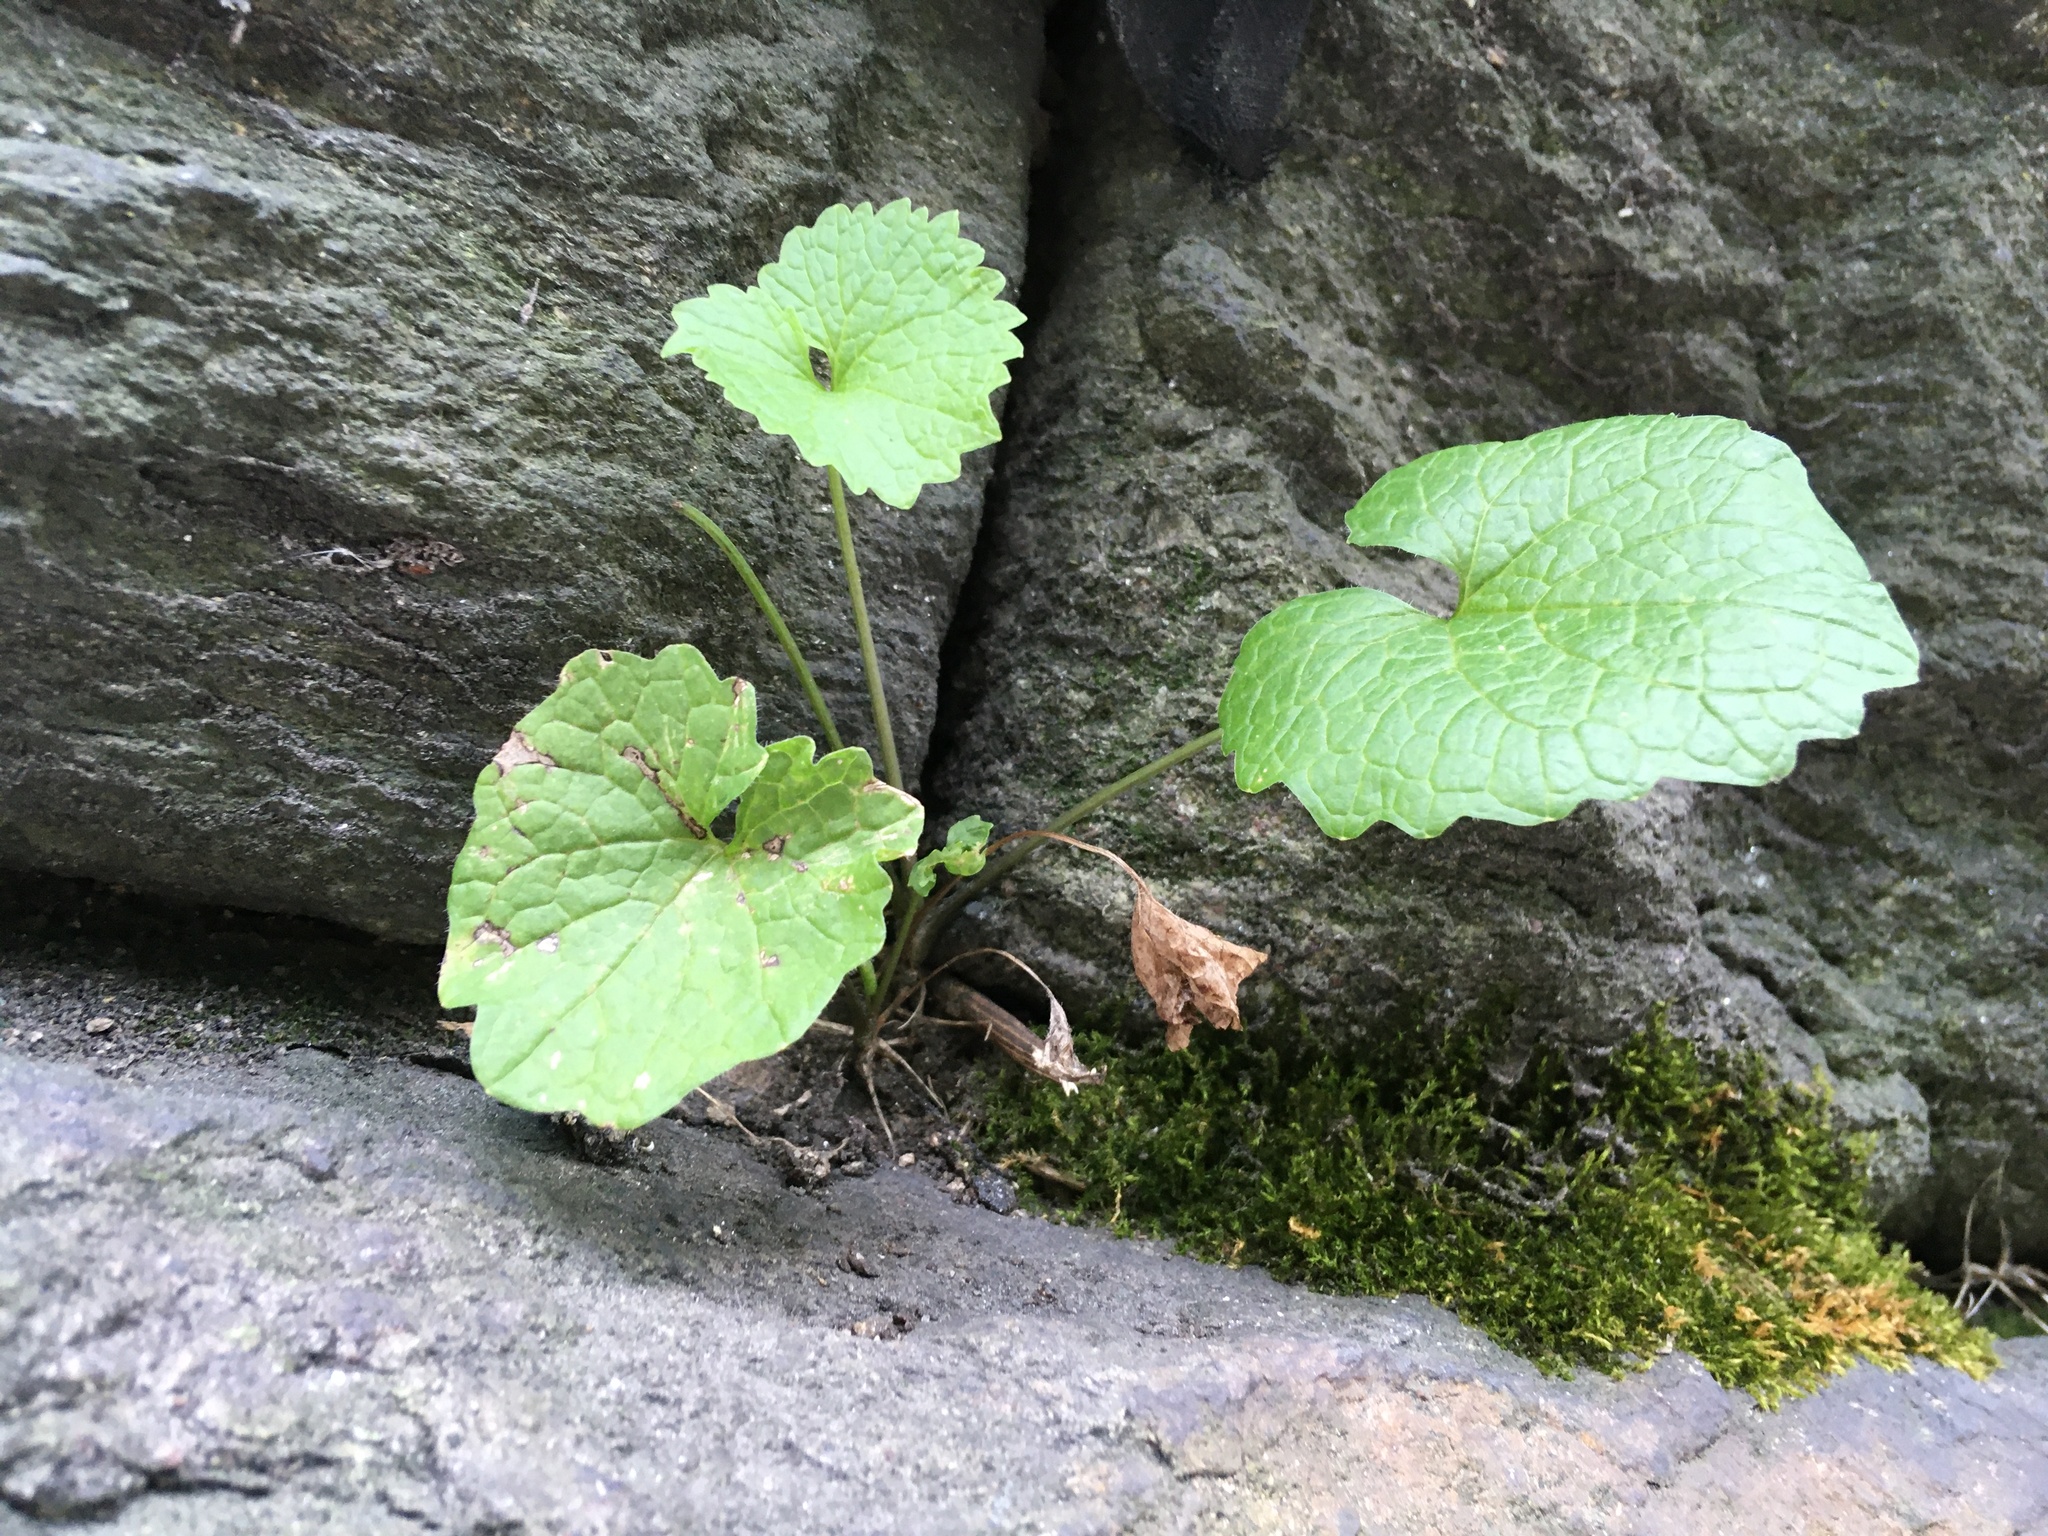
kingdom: Plantae
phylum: Tracheophyta
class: Magnoliopsida
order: Brassicales
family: Brassicaceae
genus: Alliaria
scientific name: Alliaria petiolata
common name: Garlic mustard
